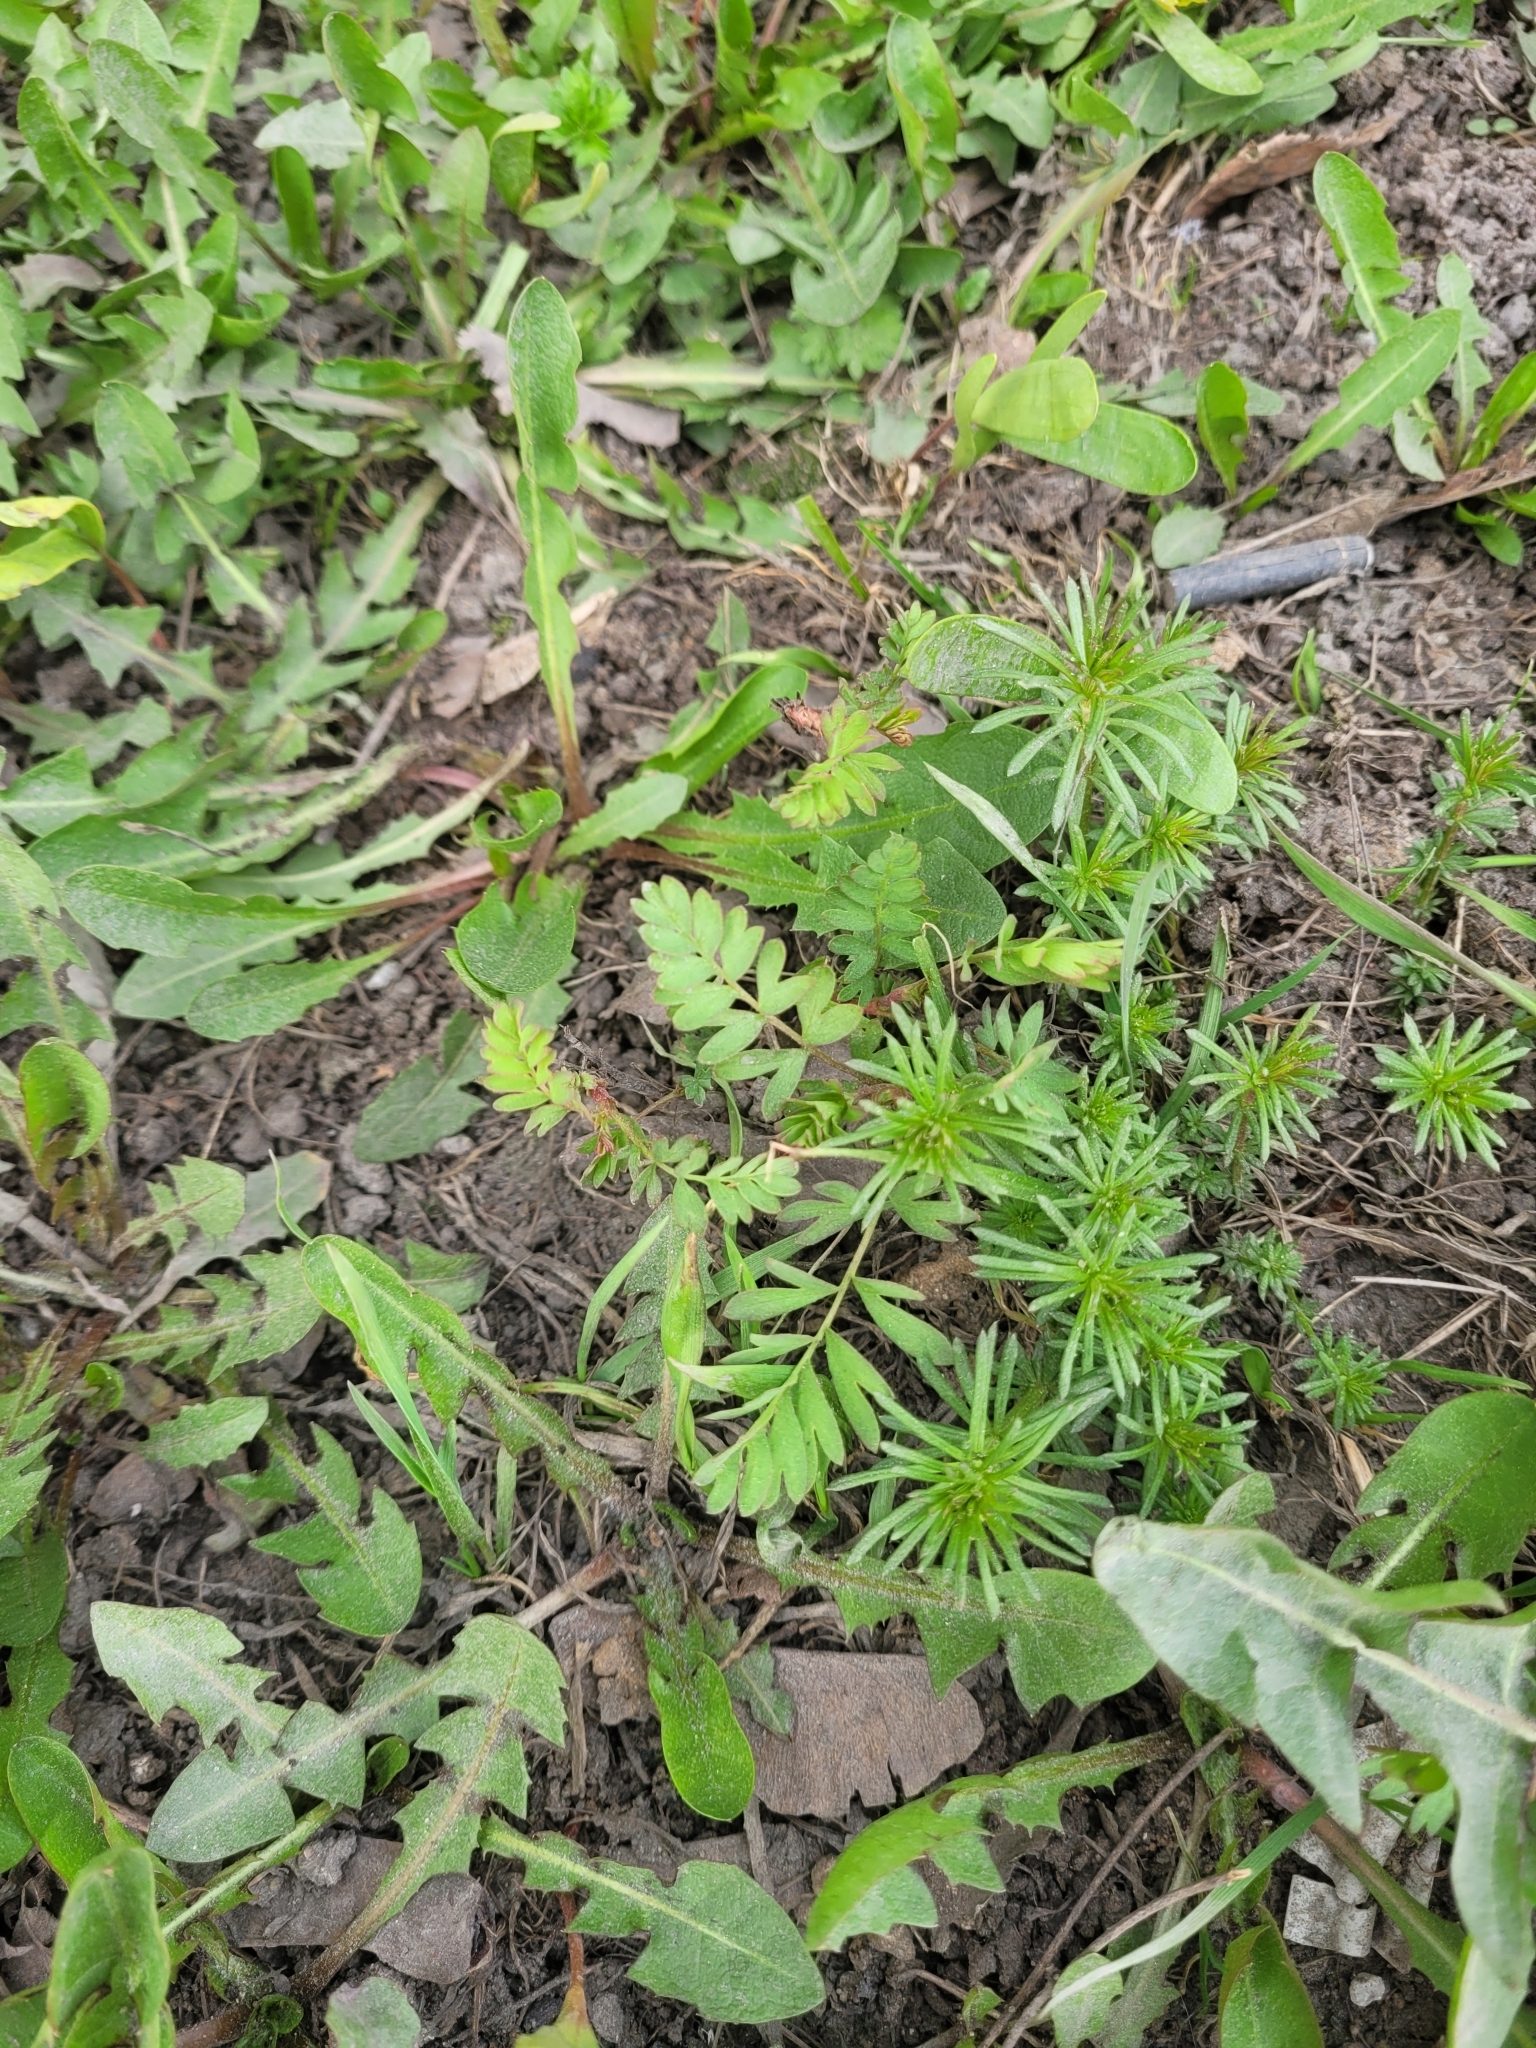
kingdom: Plantae
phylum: Tracheophyta
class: Magnoliopsida
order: Rosales
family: Rosaceae
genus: Sibbaldianthe
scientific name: Sibbaldianthe bifurca
